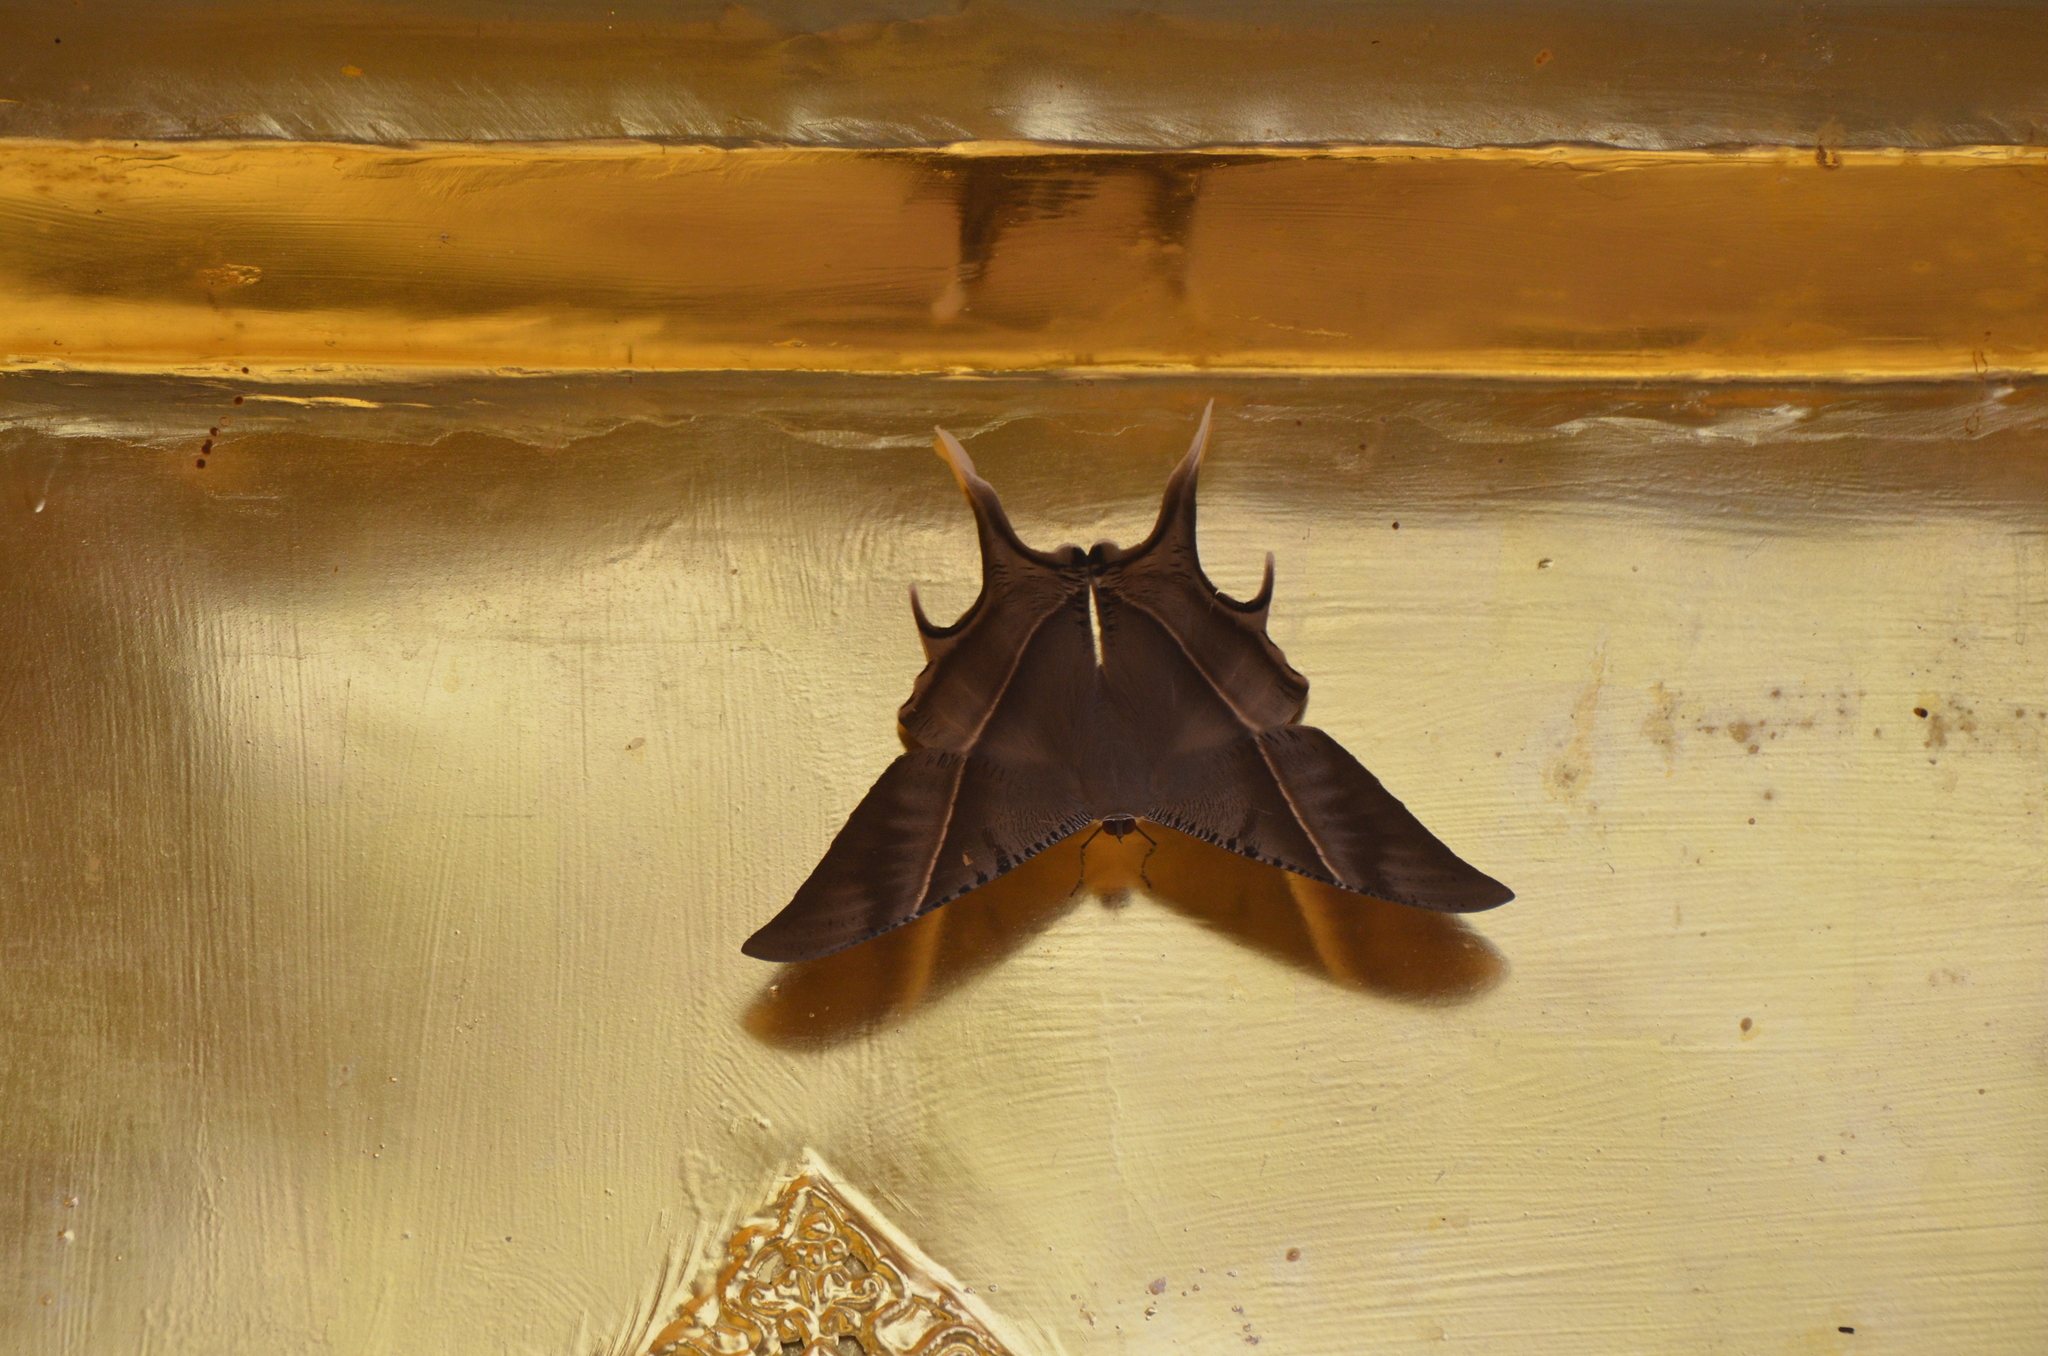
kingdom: Animalia
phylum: Arthropoda
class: Insecta
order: Lepidoptera
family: Uraniidae
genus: Lyssa
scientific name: Lyssa zampa
